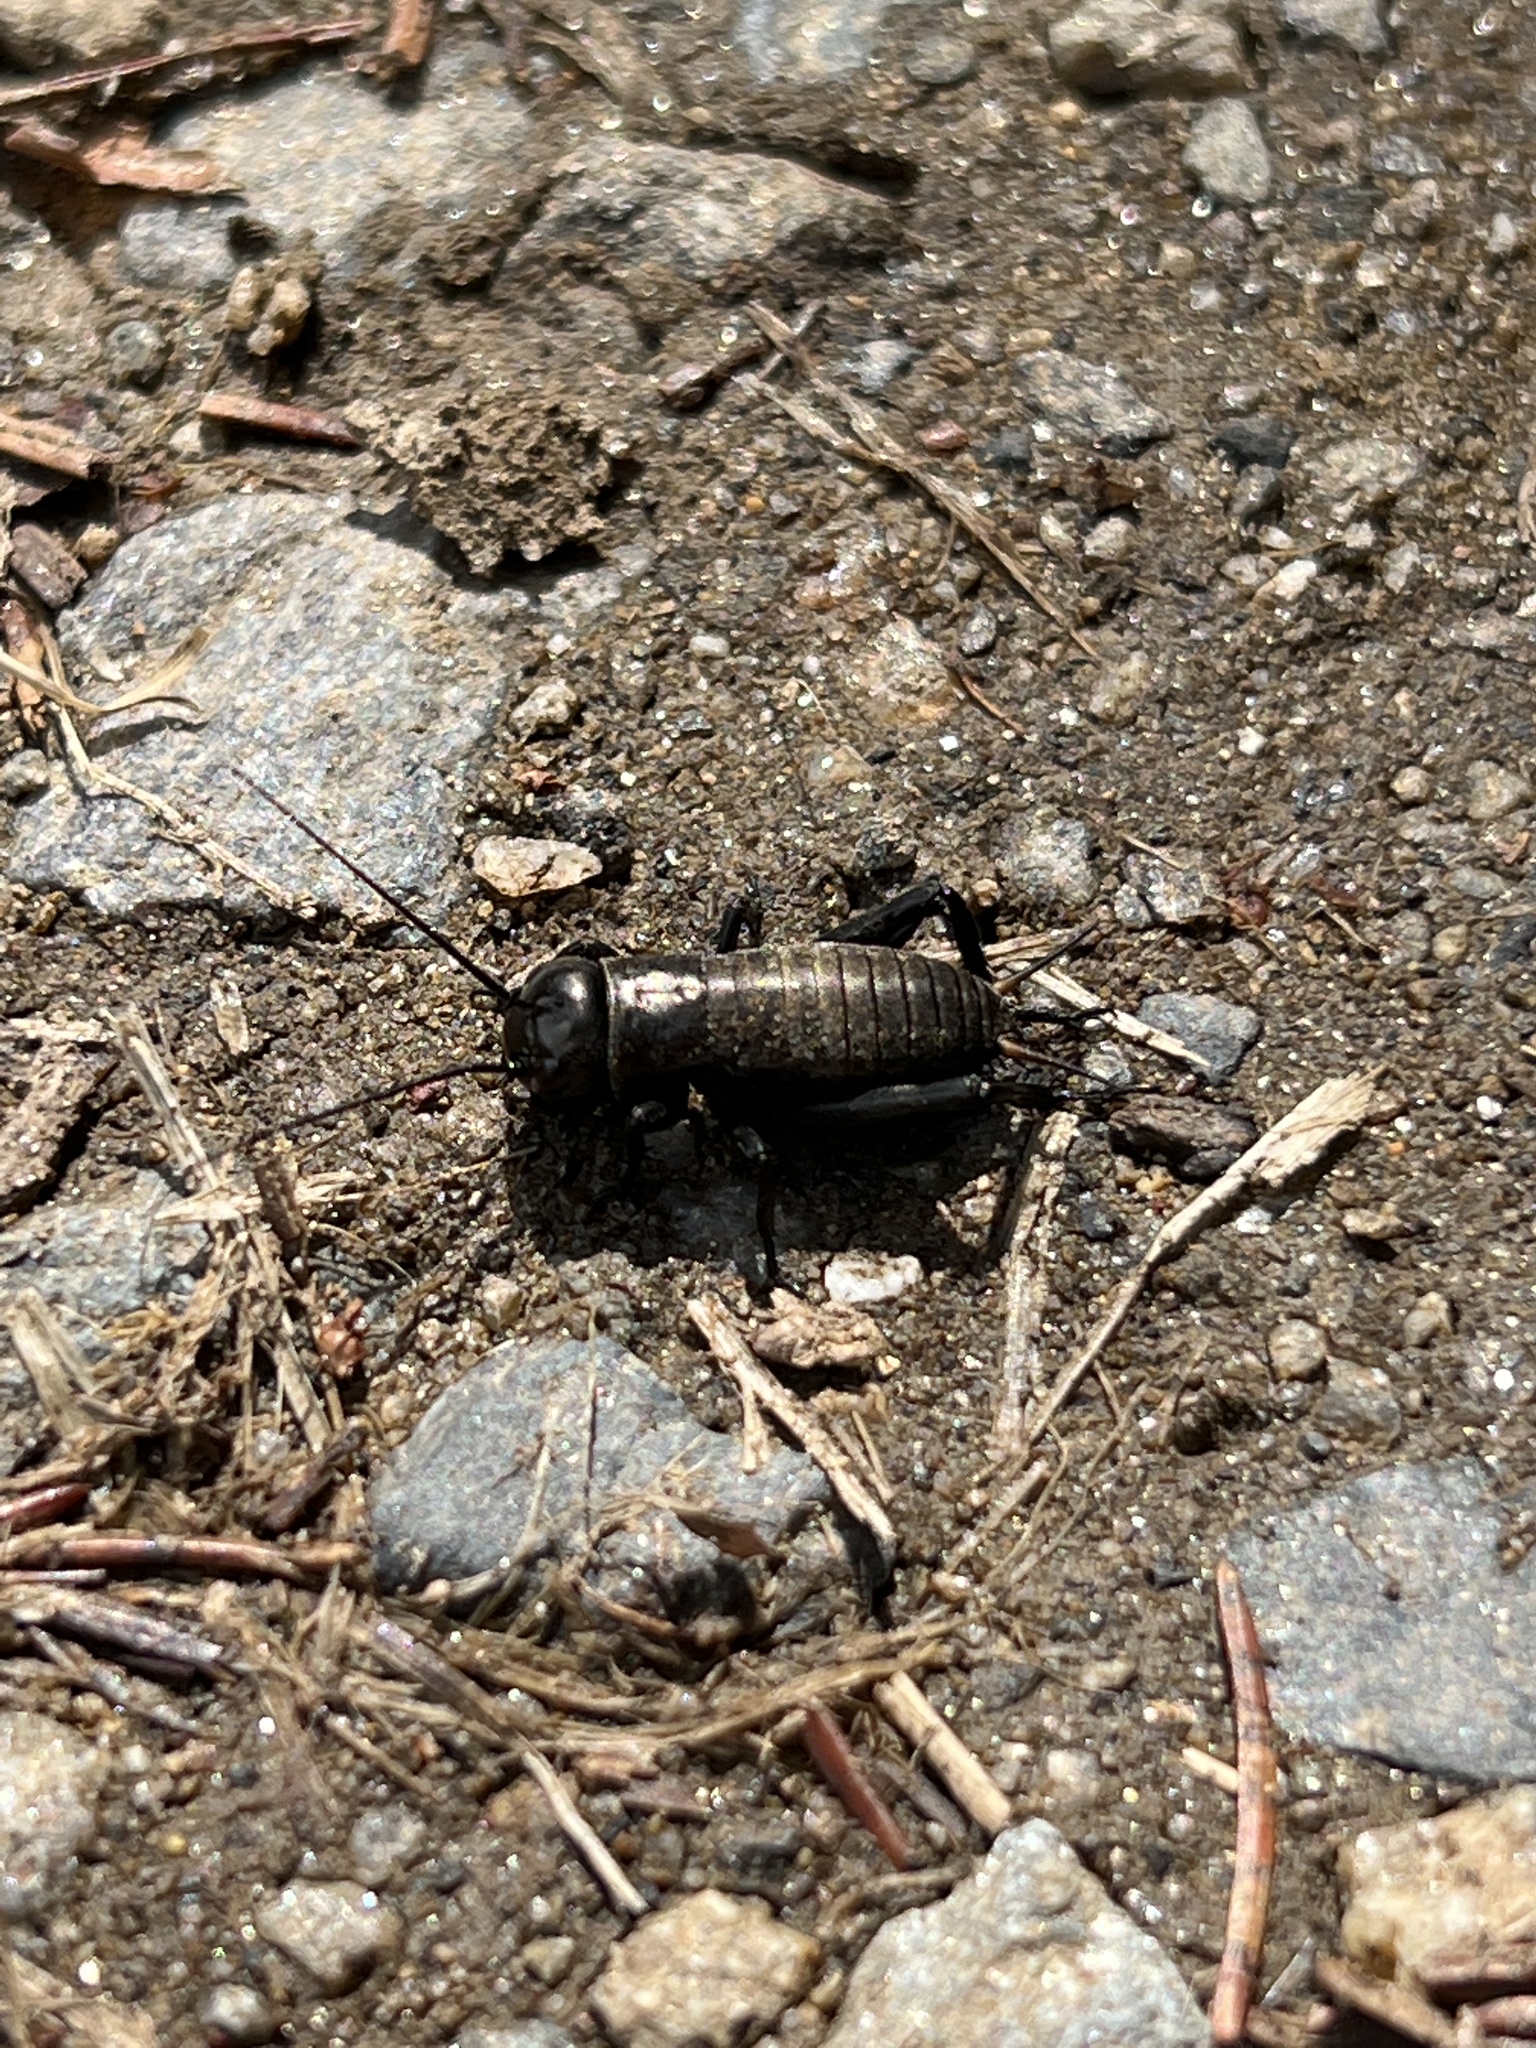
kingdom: Animalia
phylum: Arthropoda
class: Insecta
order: Orthoptera
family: Gryllidae
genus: Gryllus
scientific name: Gryllus campestris
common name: Field cricket
